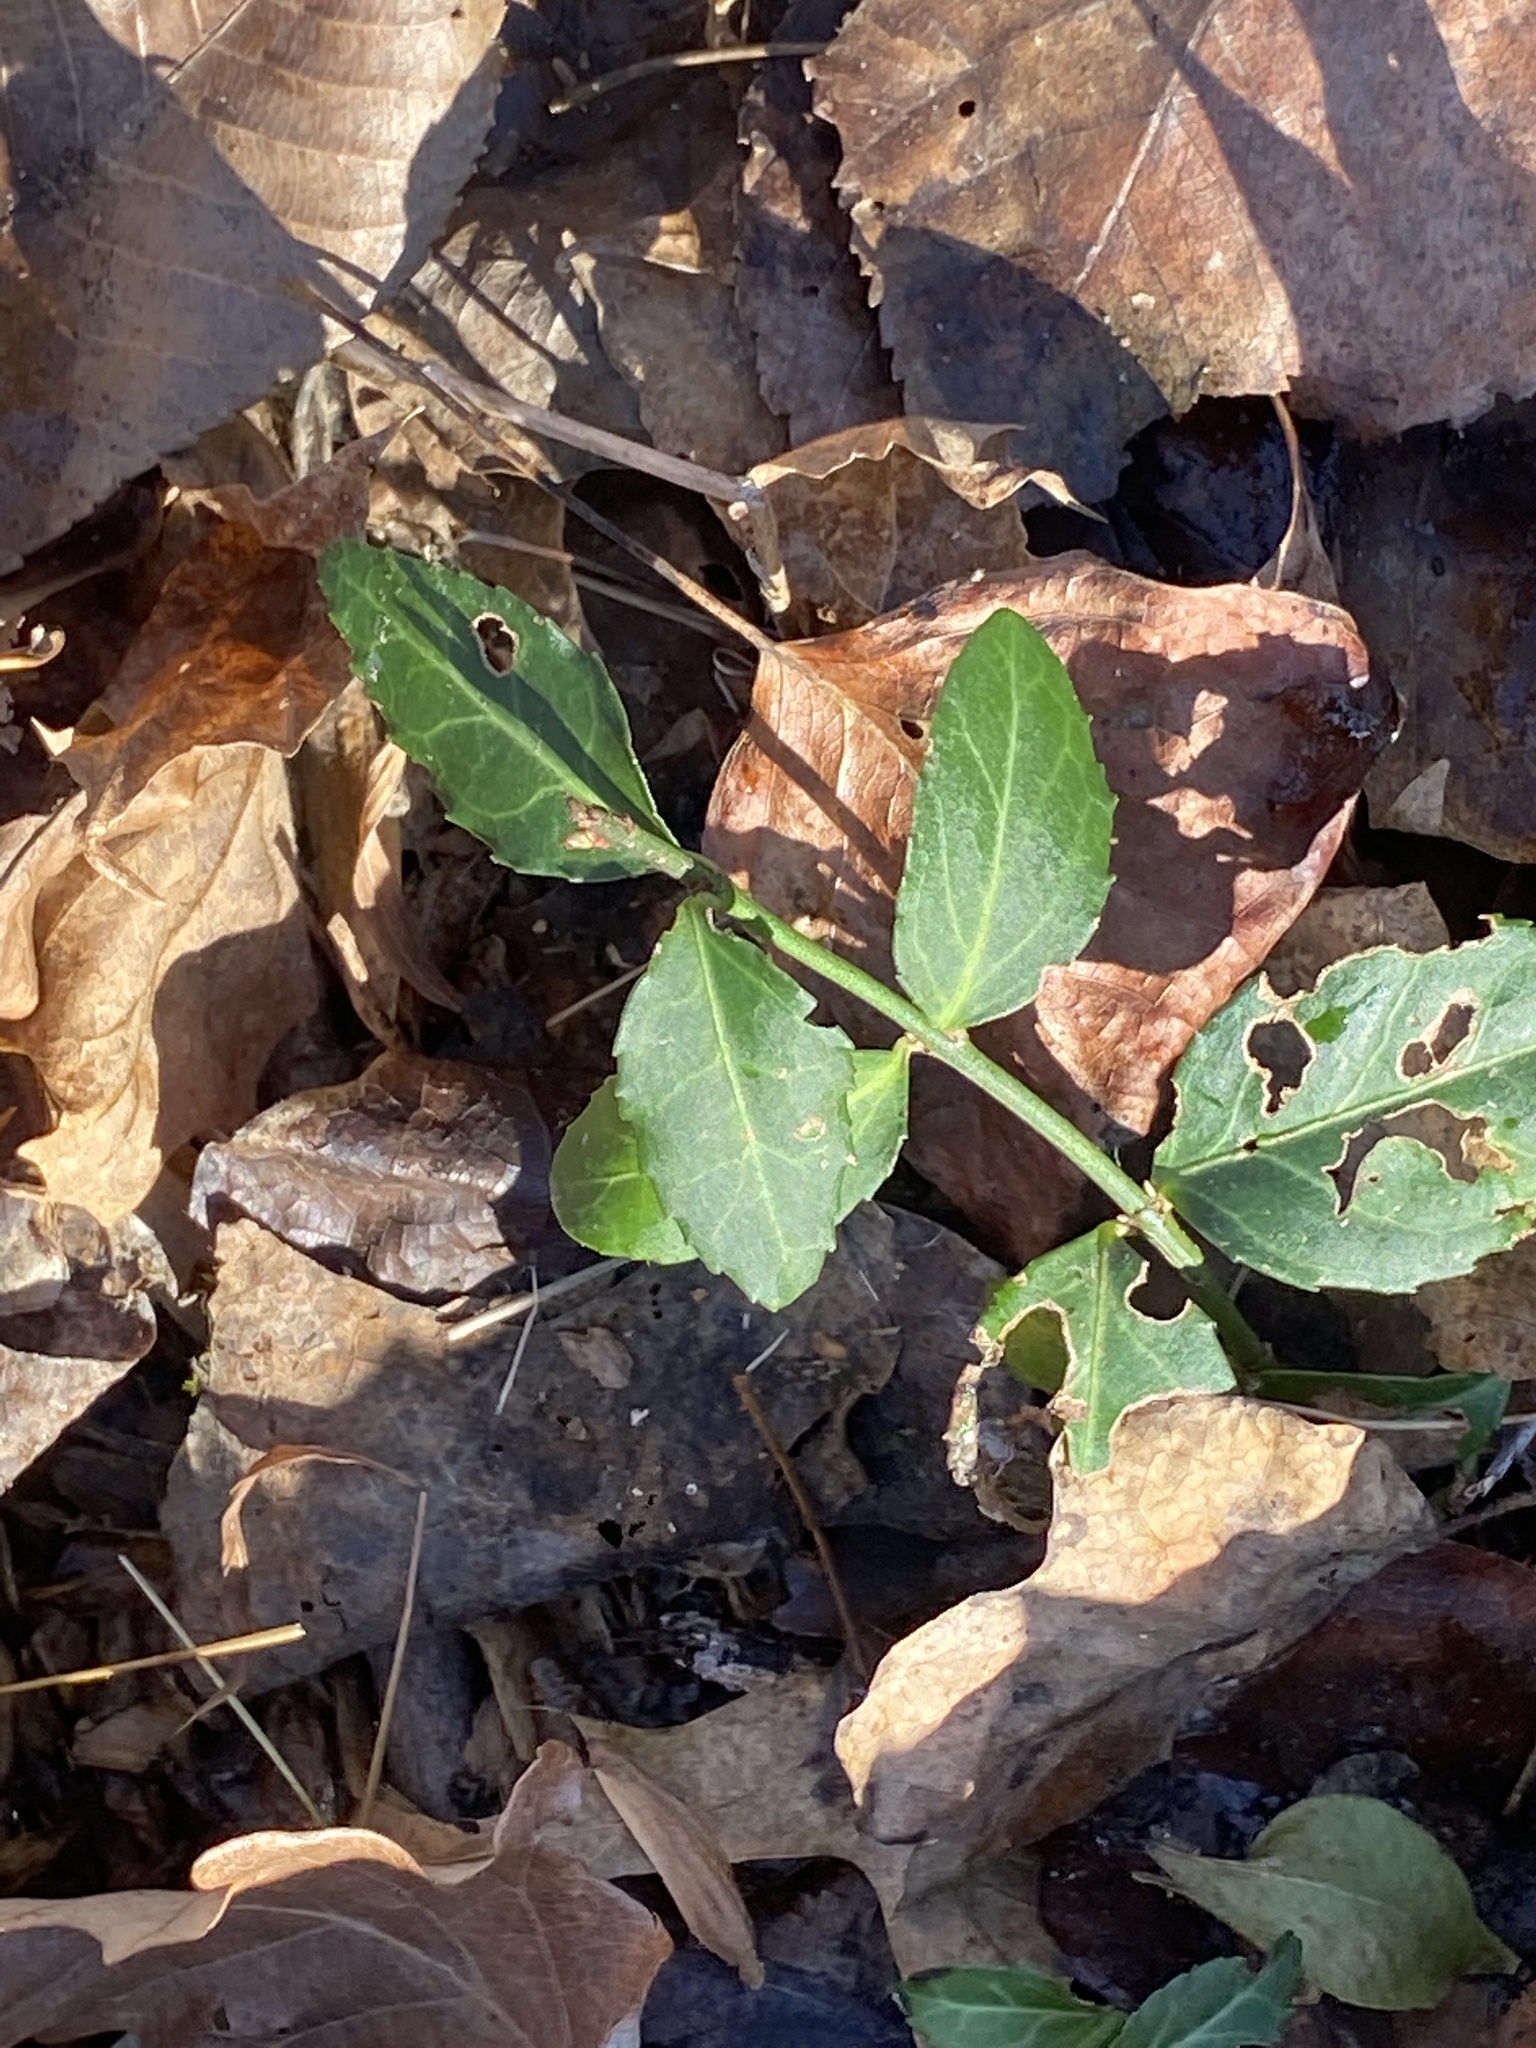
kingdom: Plantae
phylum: Tracheophyta
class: Magnoliopsida
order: Celastrales
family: Celastraceae
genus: Euonymus
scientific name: Euonymus fortunei
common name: Climbing euonymus
